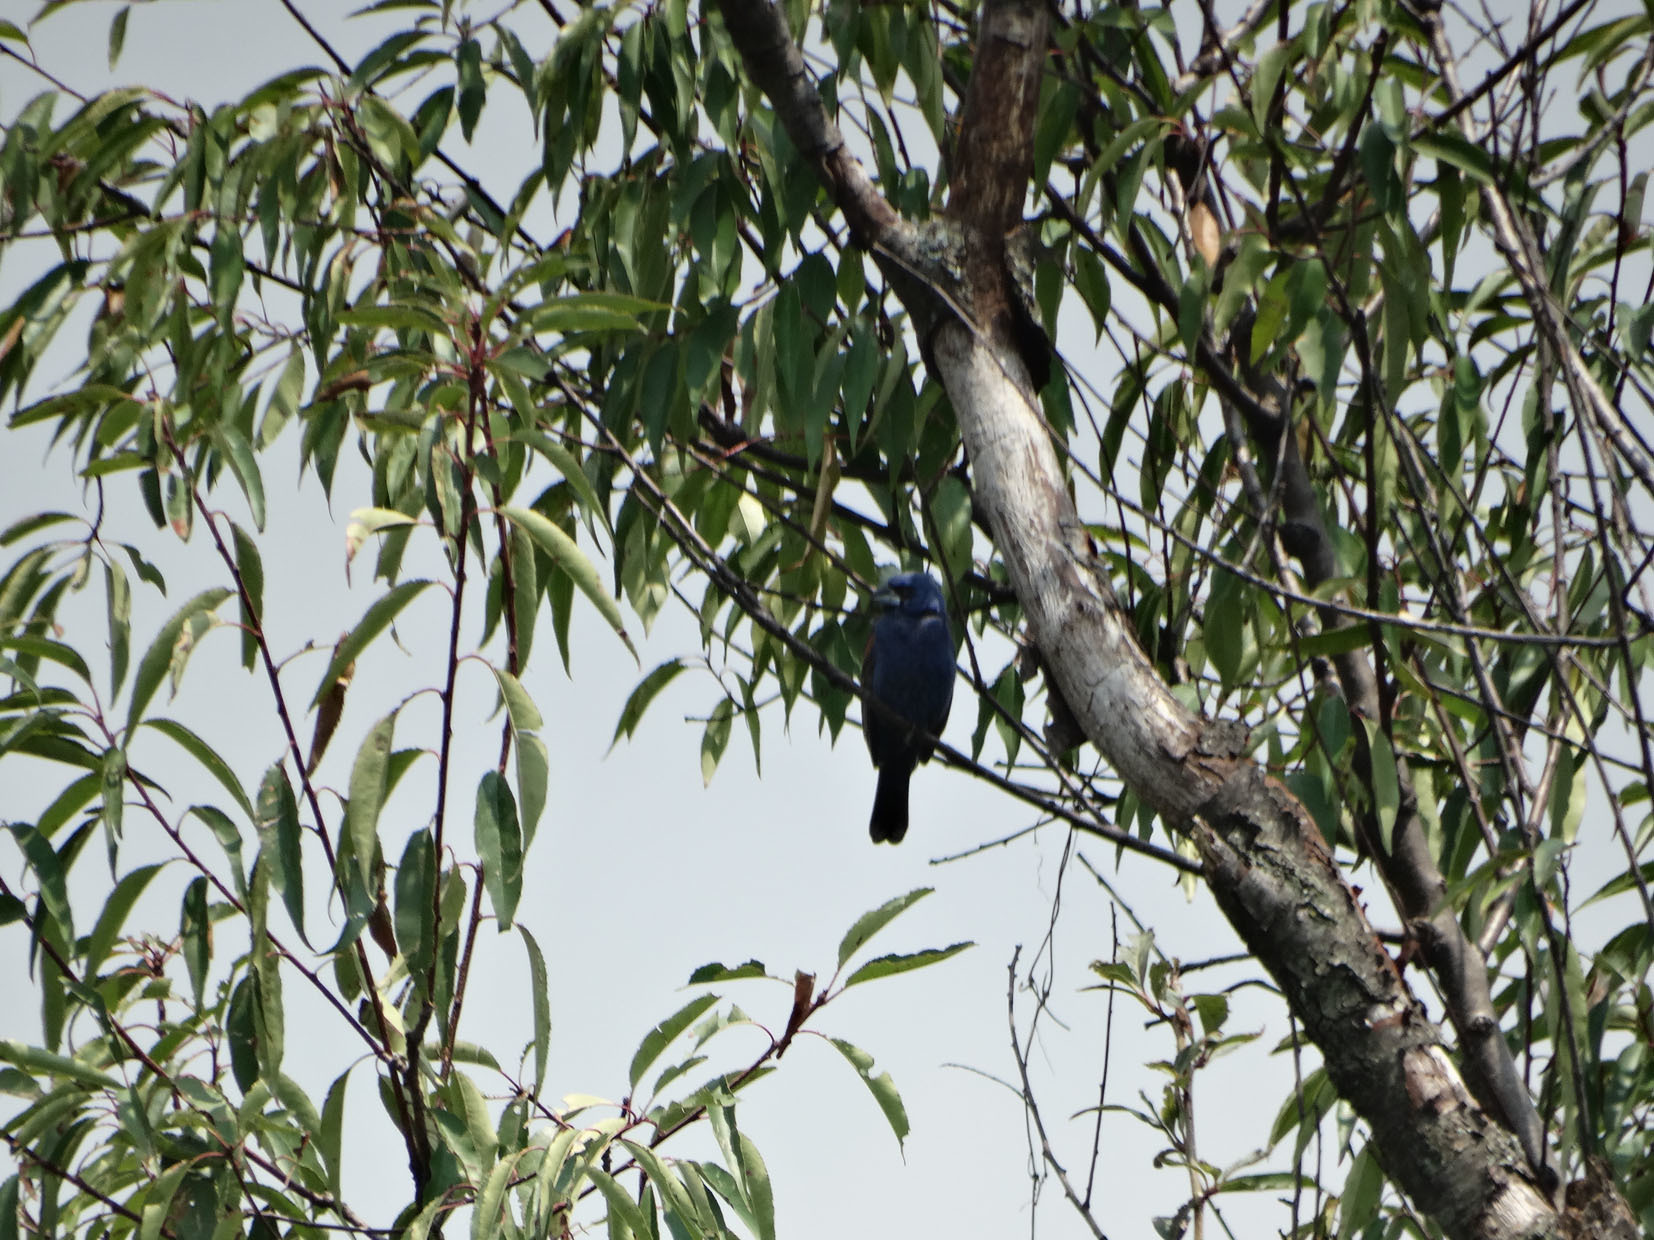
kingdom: Animalia
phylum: Chordata
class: Aves
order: Passeriformes
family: Cardinalidae
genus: Passerina
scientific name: Passerina caerulea
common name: Blue grosbeak
